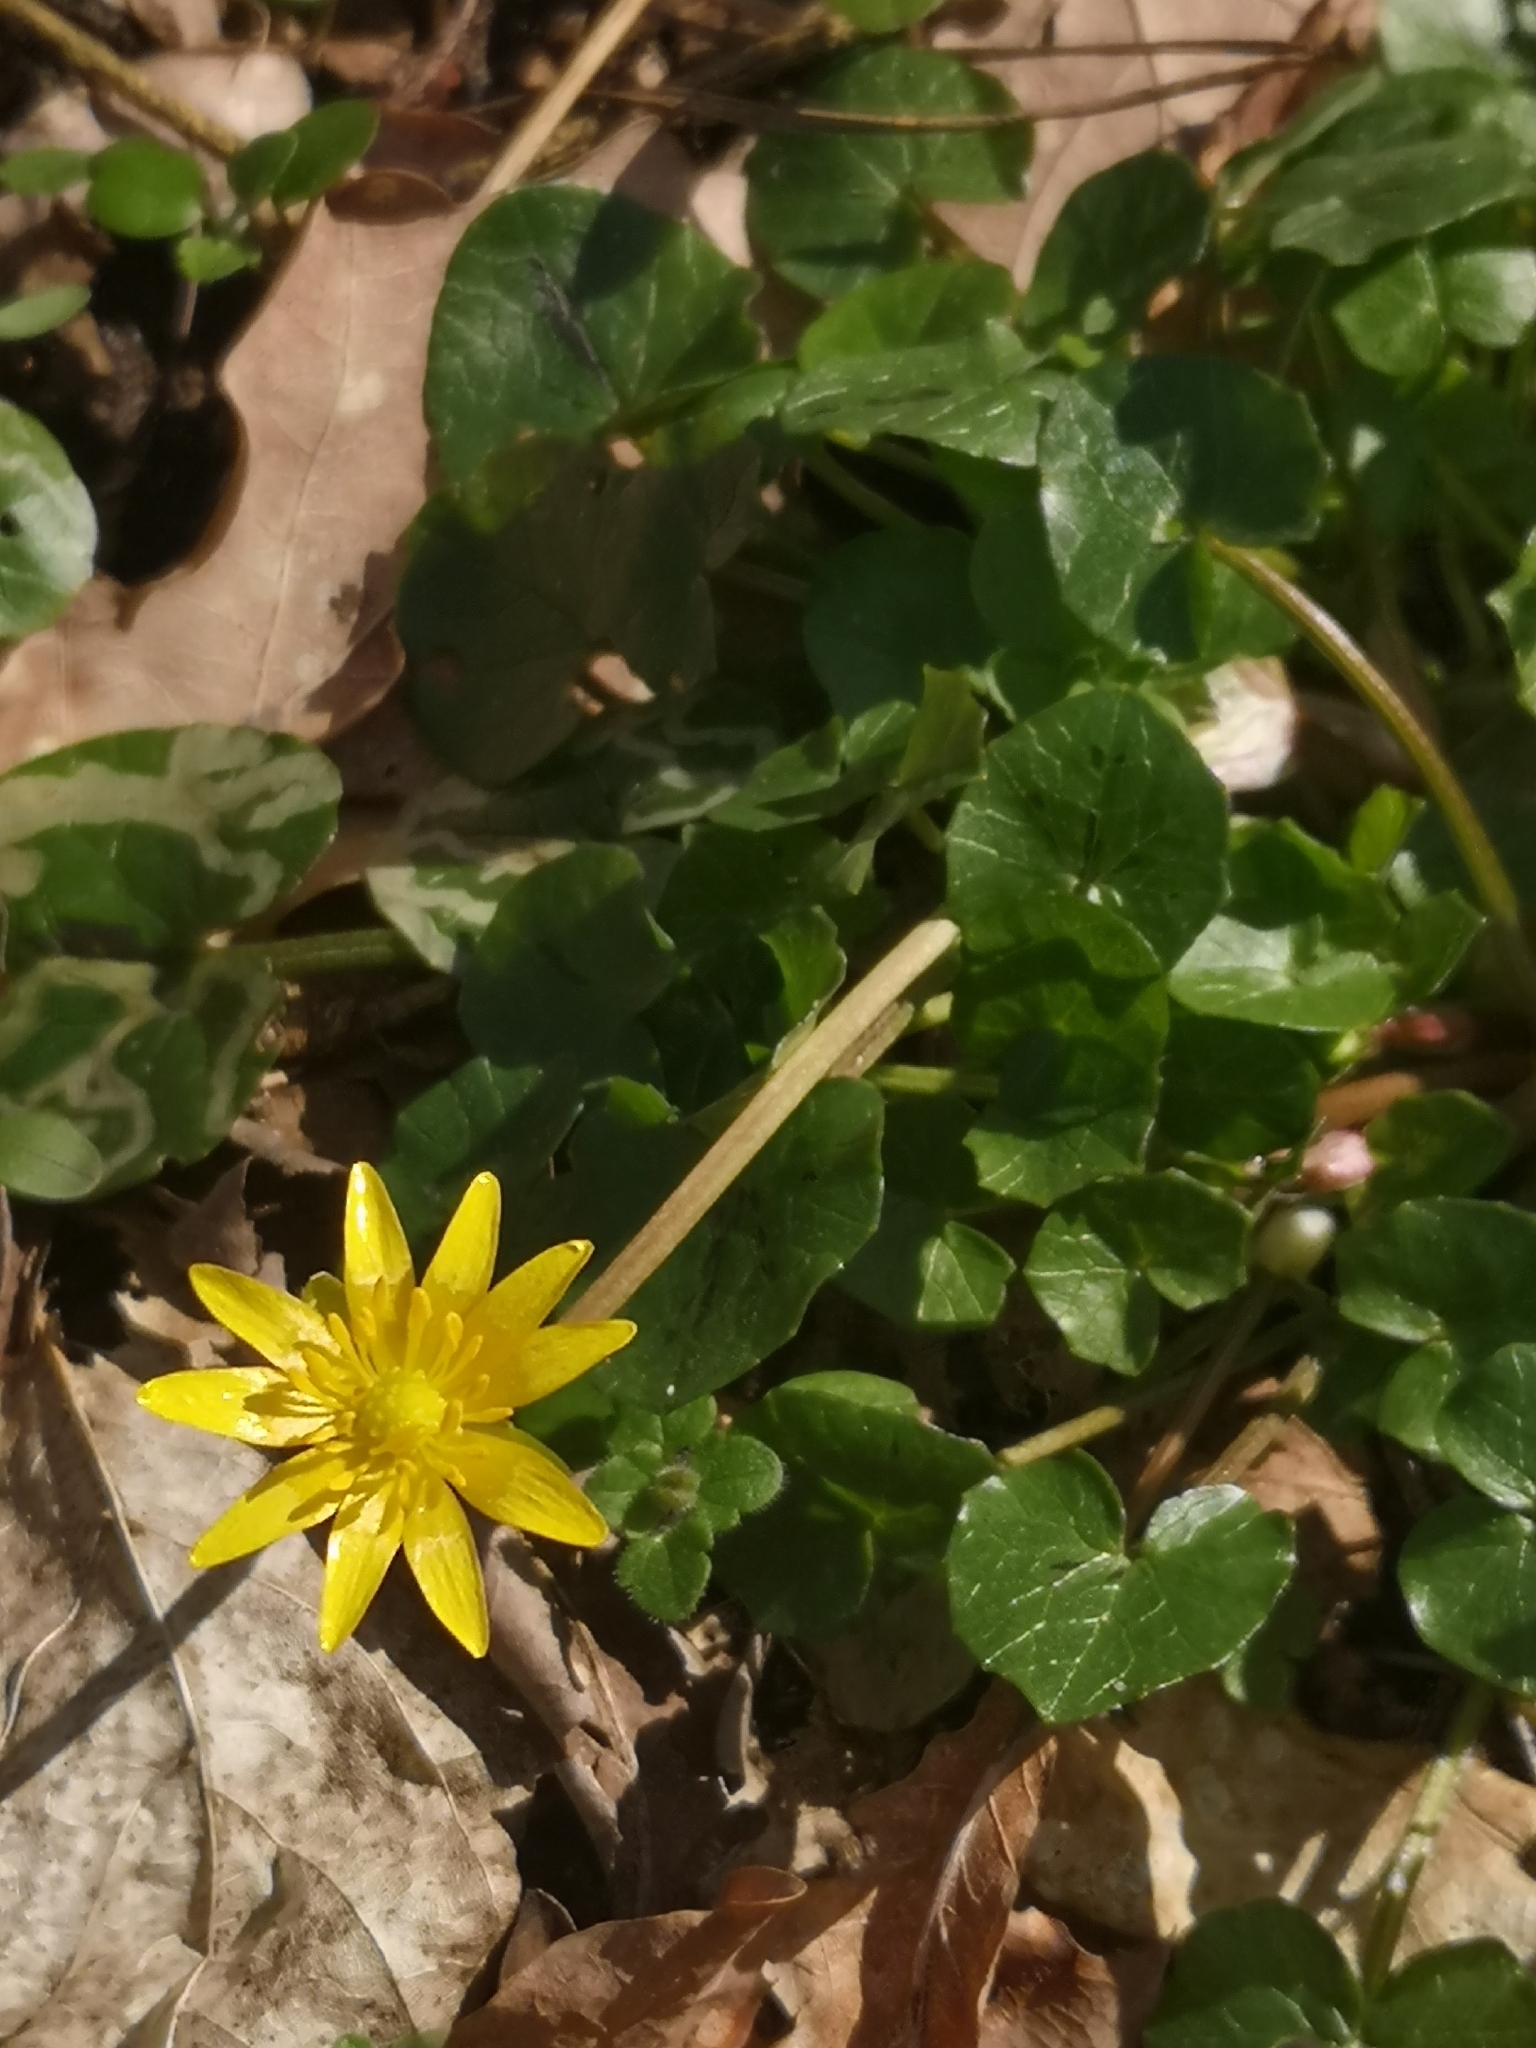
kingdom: Plantae
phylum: Tracheophyta
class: Magnoliopsida
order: Ranunculales
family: Ranunculaceae
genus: Ficaria
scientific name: Ficaria verna
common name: Lesser celandine
